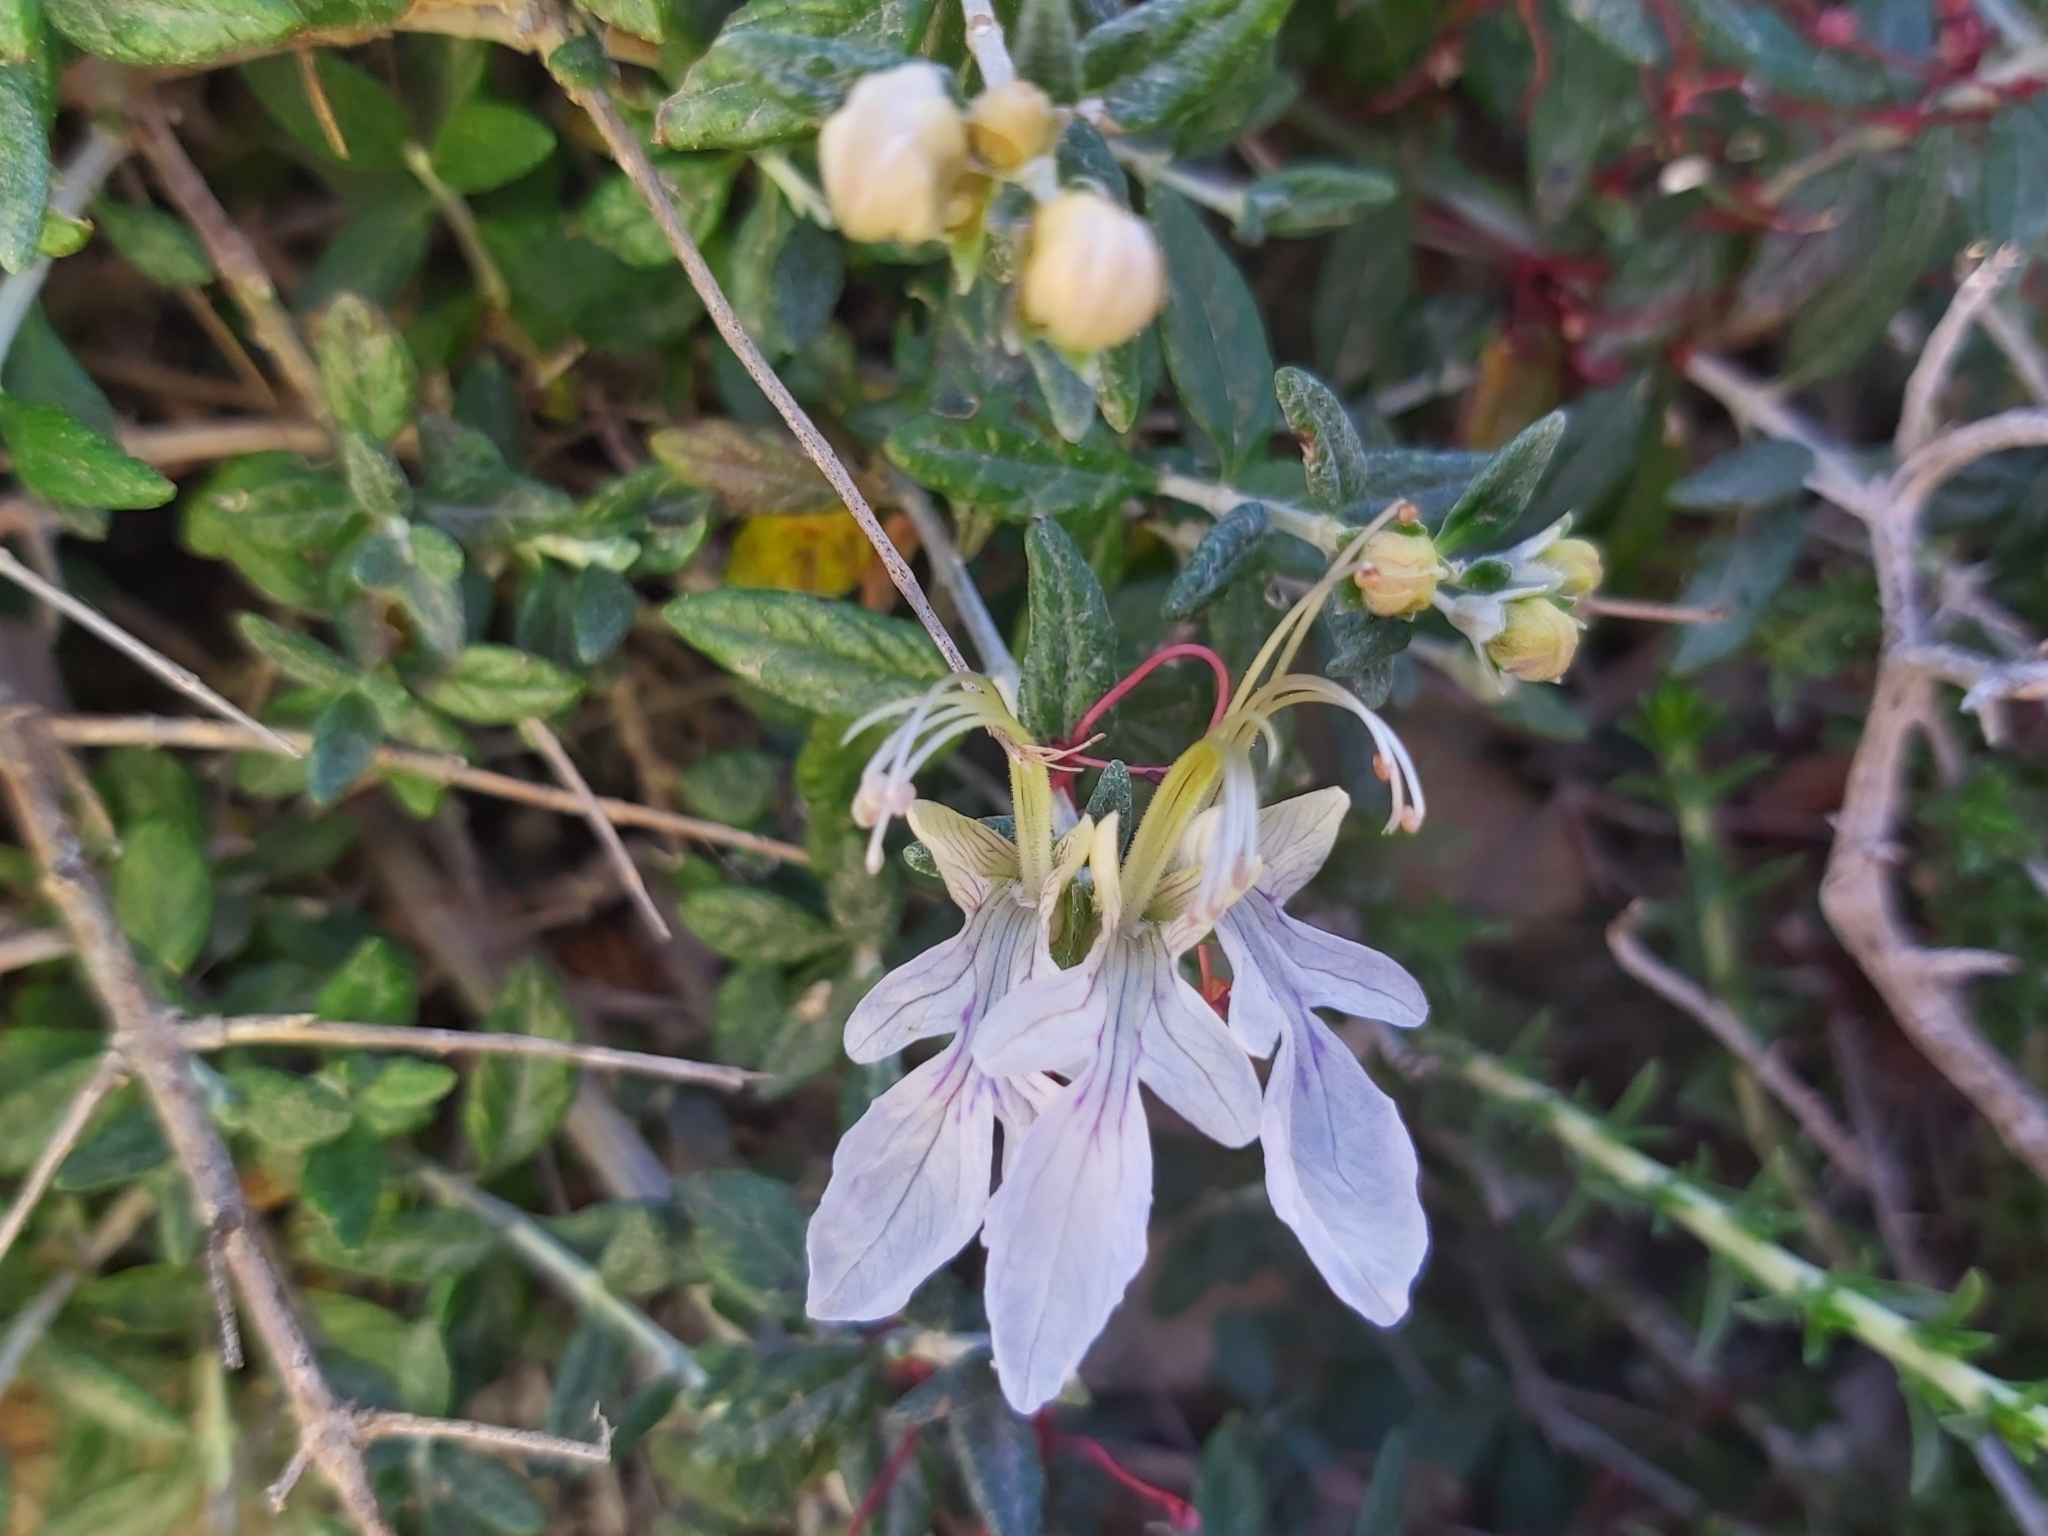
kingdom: Plantae
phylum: Tracheophyta
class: Magnoliopsida
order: Lamiales
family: Lamiaceae
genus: Teucrium
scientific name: Teucrium fruticans
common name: Shrubby germander
